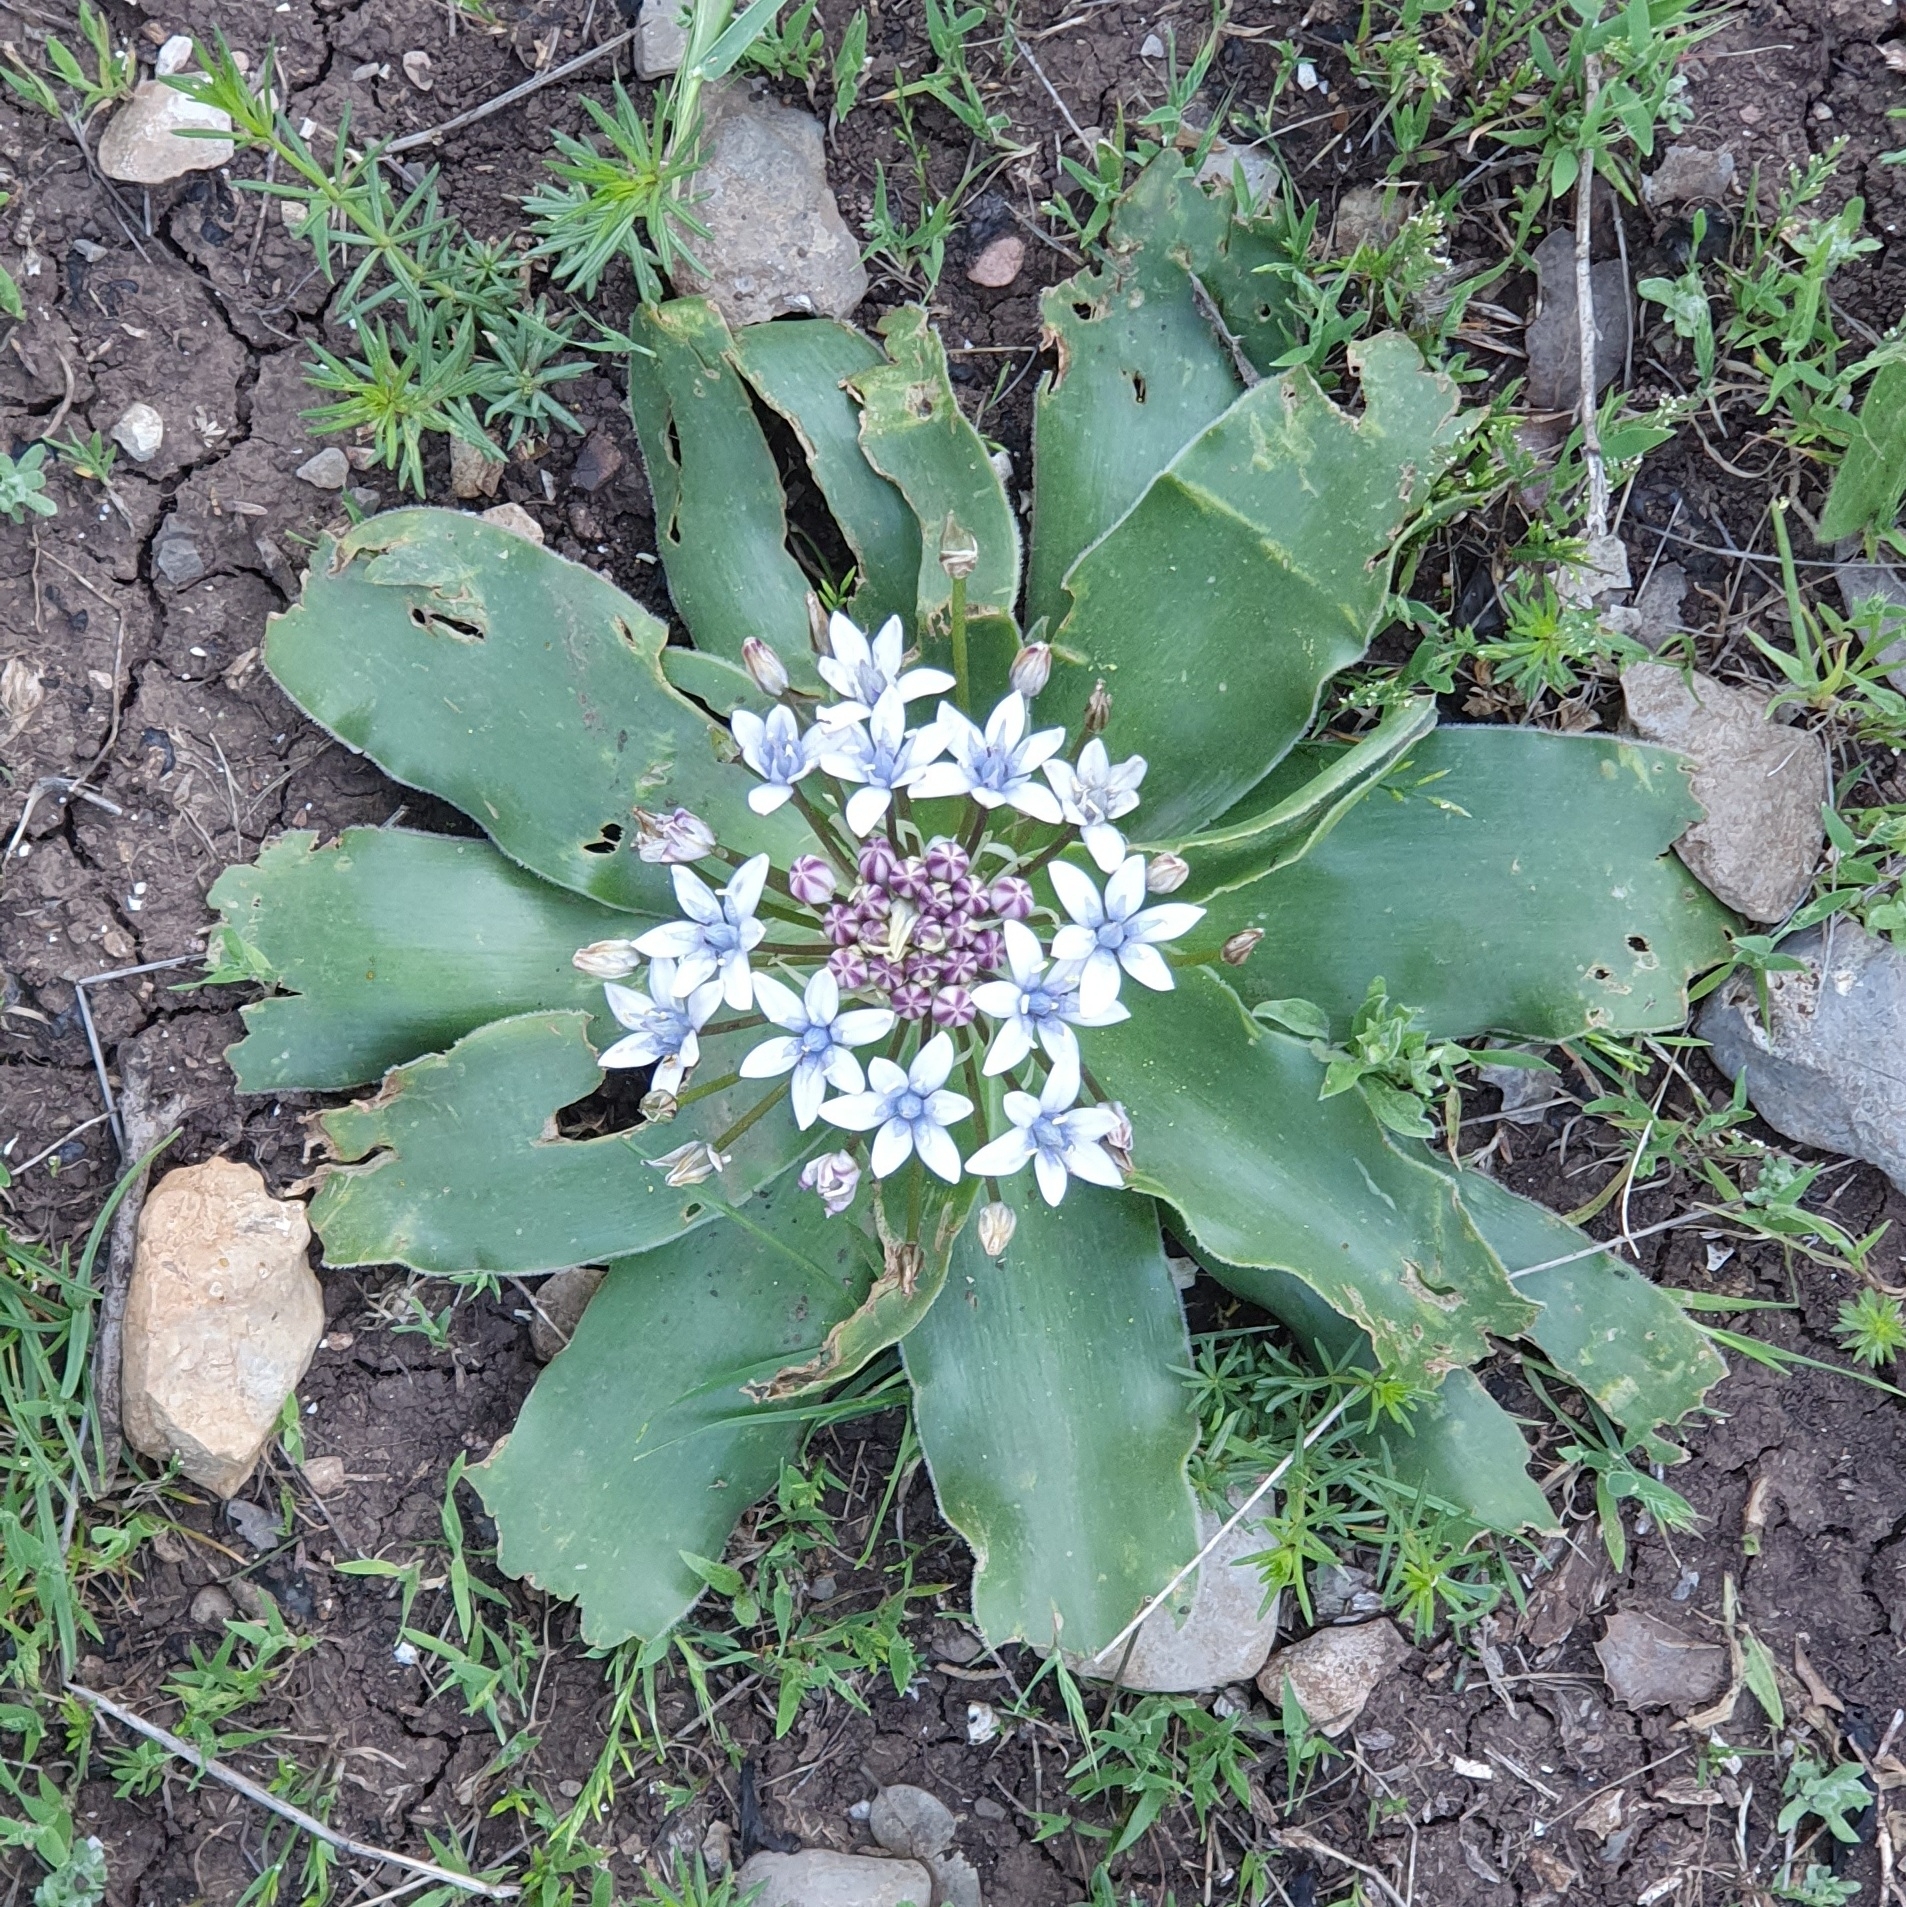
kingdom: Plantae
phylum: Tracheophyta
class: Liliopsida
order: Asparagales
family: Asparagaceae
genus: Scilla
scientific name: Scilla peruviana
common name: Portuguese squill
